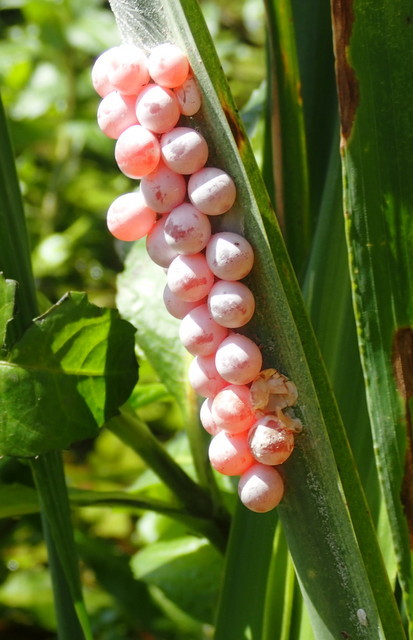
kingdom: Animalia
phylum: Mollusca
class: Gastropoda
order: Architaenioglossa
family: Ampullariidae
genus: Pomacea
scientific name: Pomacea paludosa
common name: Florida applesnail
